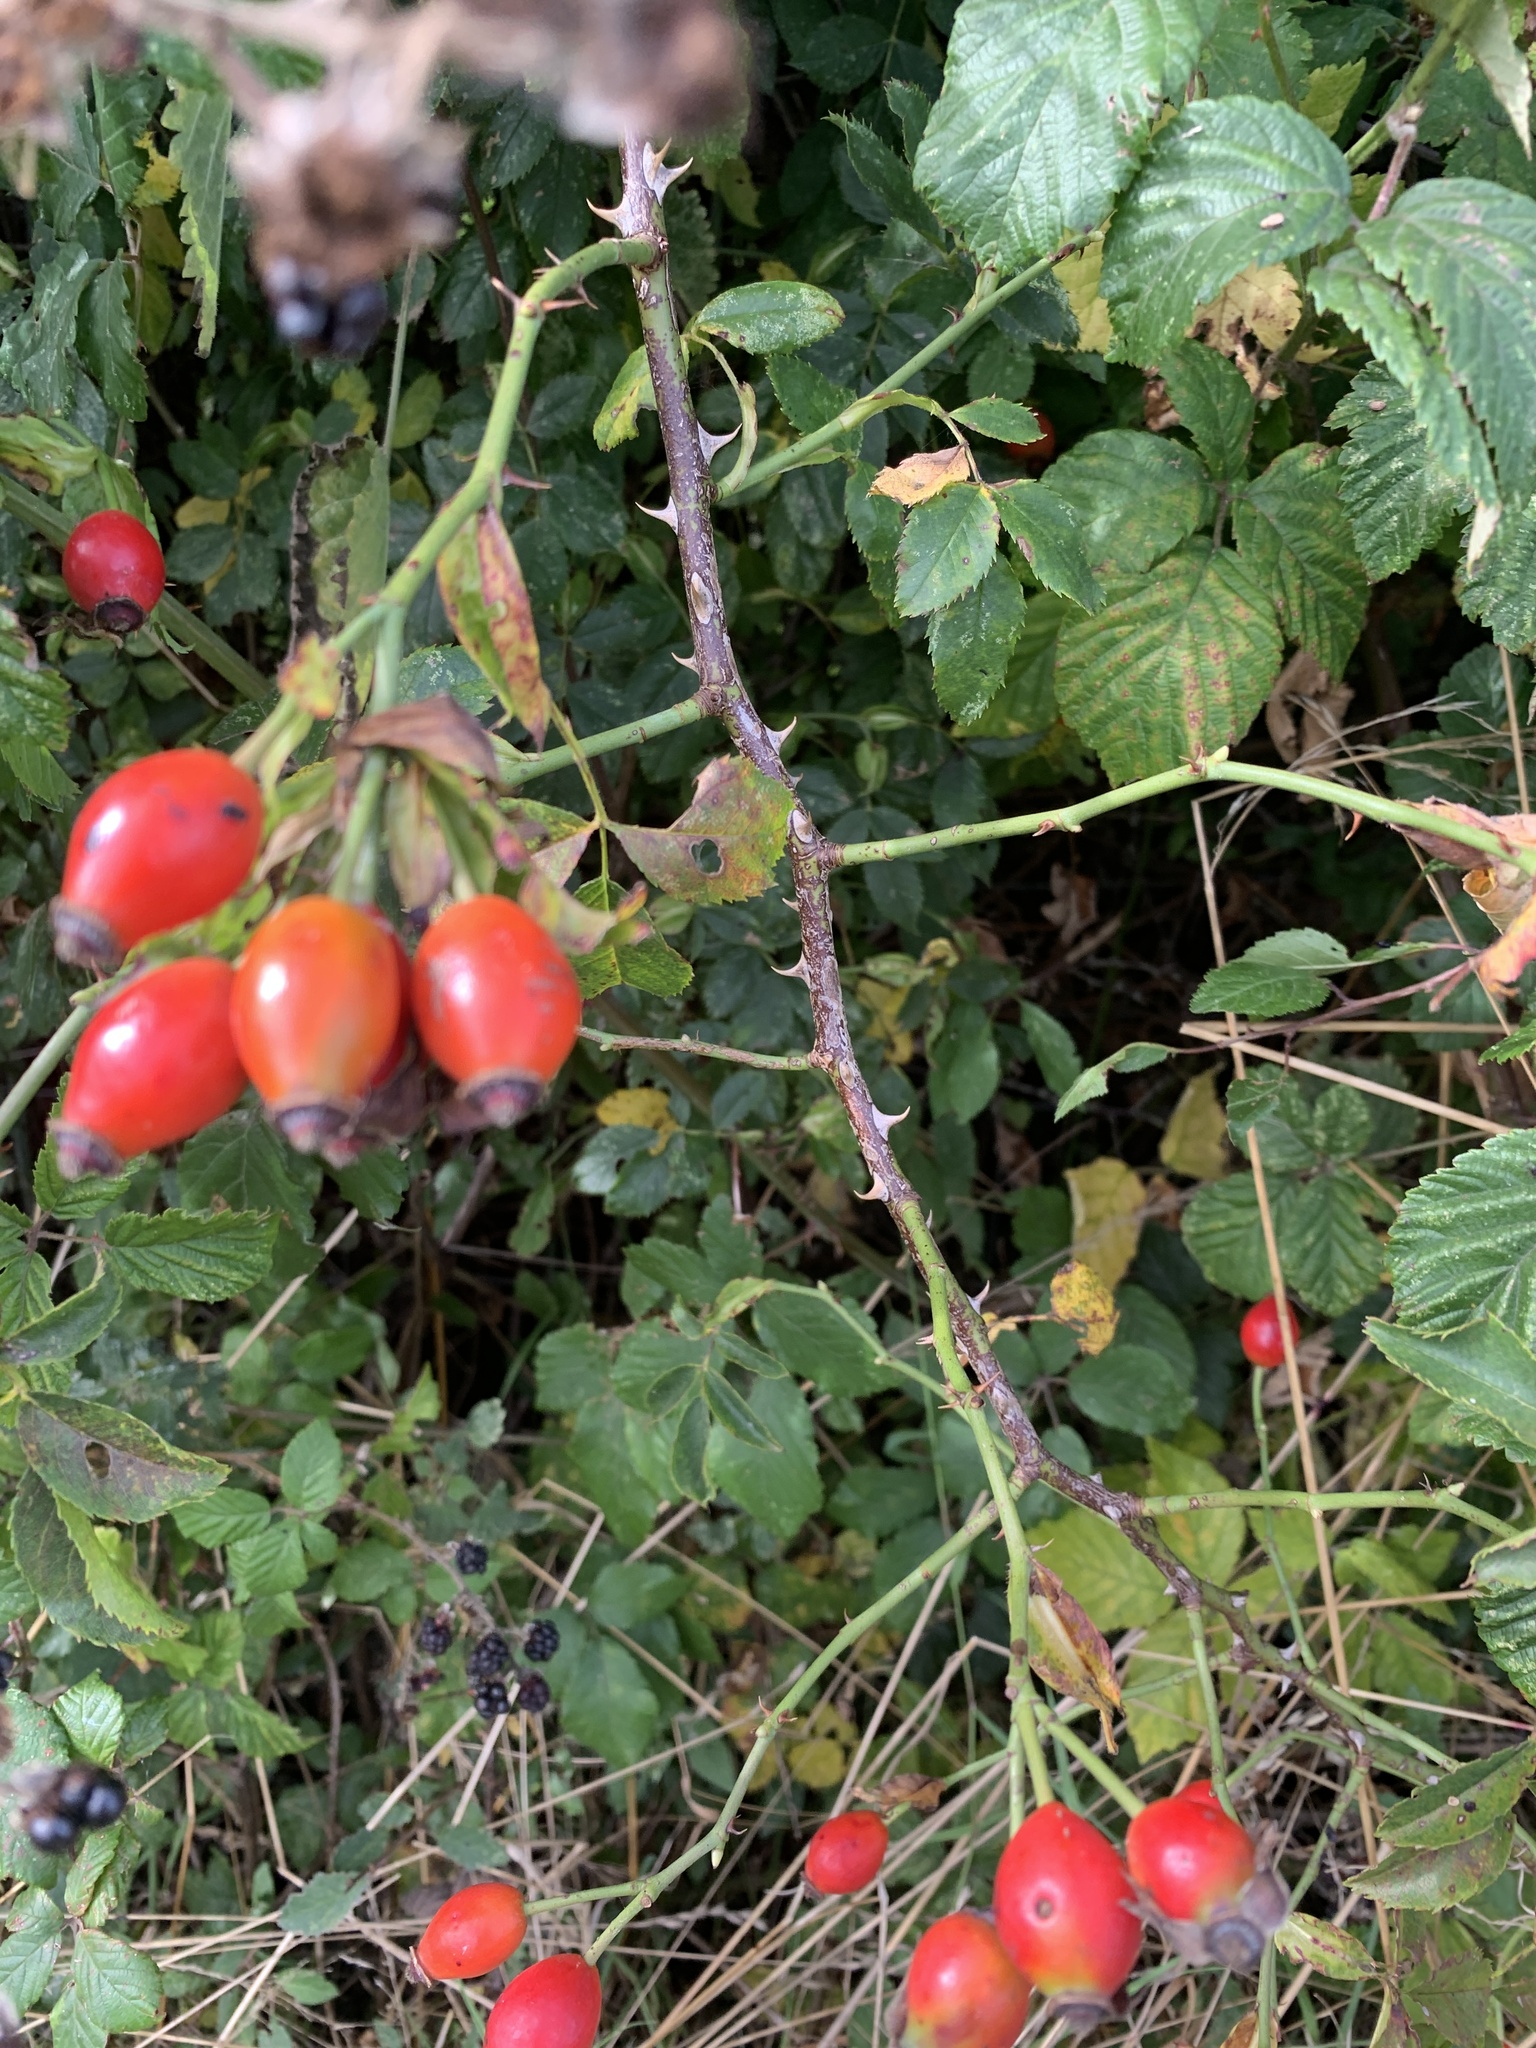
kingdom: Plantae
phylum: Tracheophyta
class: Magnoliopsida
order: Rosales
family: Rosaceae
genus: Rosa
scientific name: Rosa canina
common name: Dog rose
